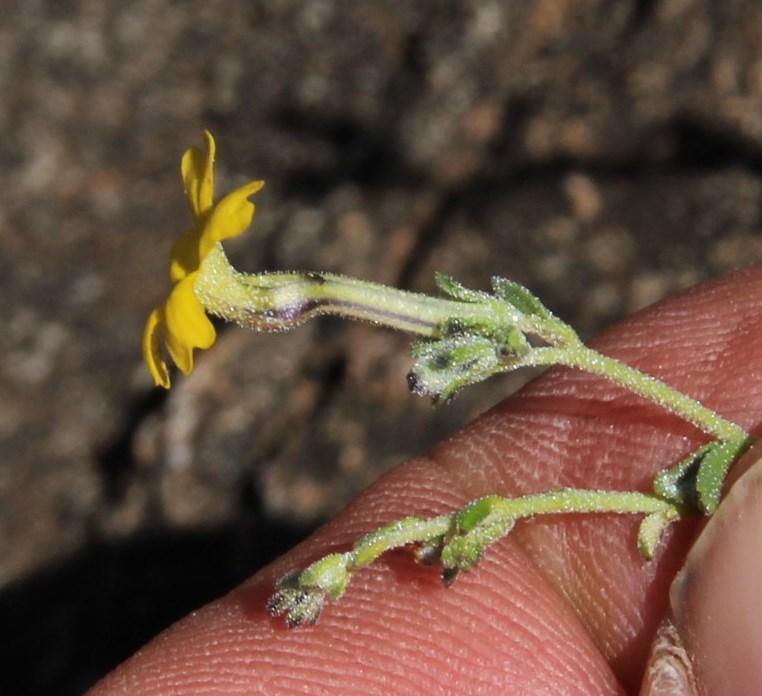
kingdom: Plantae
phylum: Tracheophyta
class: Magnoliopsida
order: Lamiales
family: Scrophulariaceae
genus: Jamesbrittenia
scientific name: Jamesbrittenia zuurbergensis
